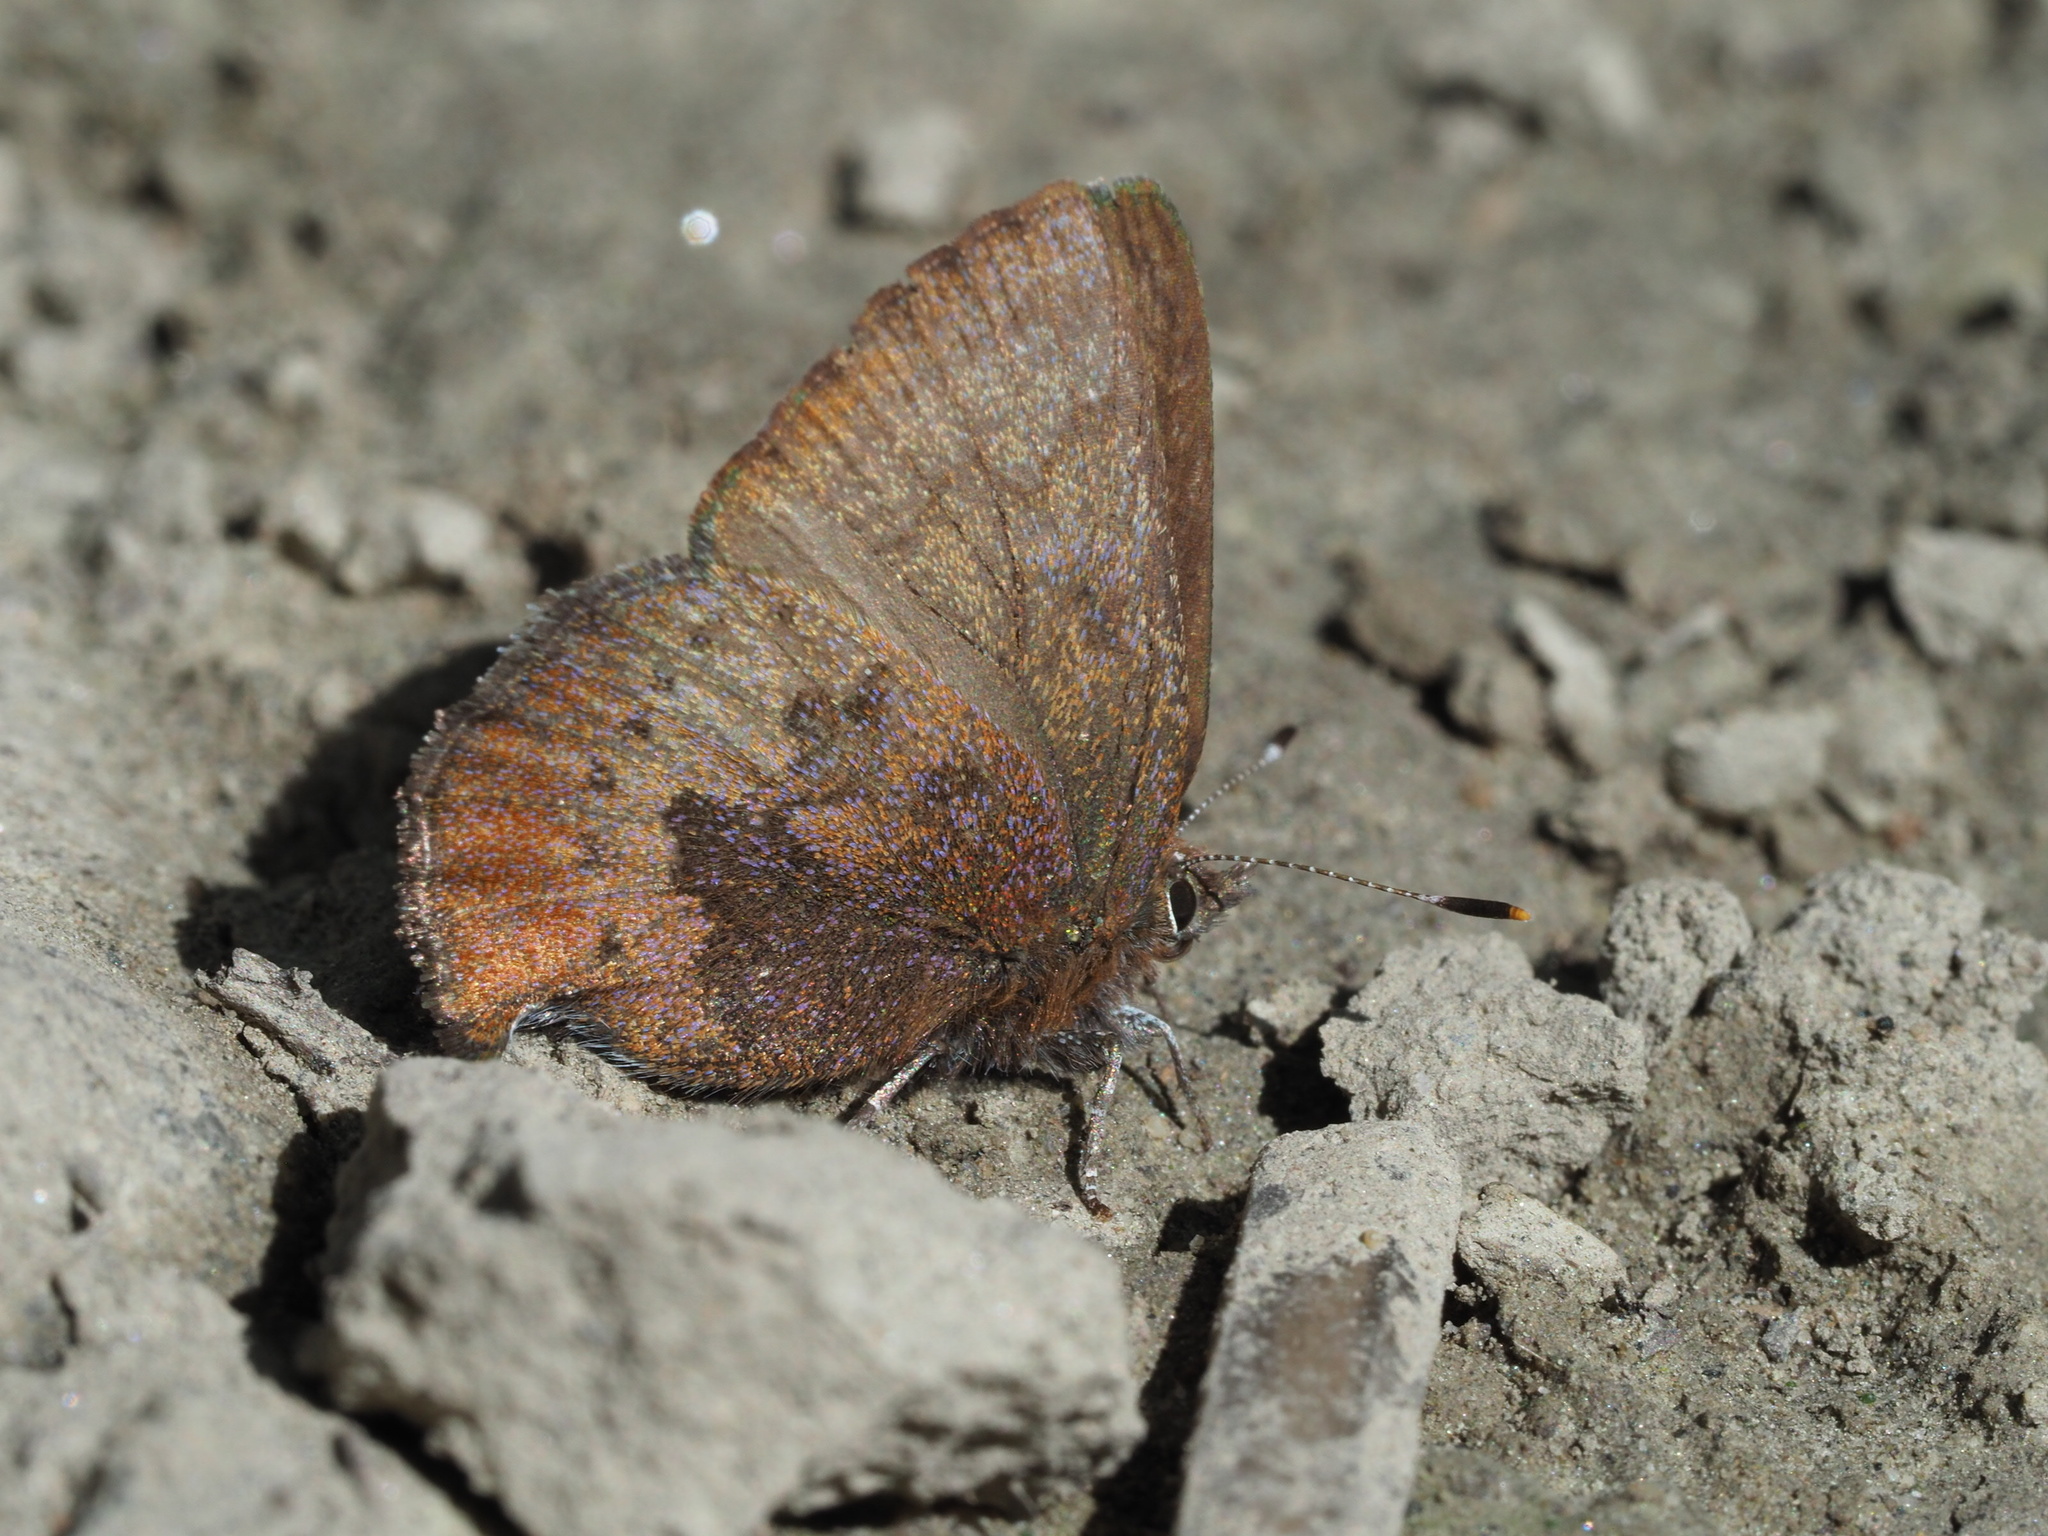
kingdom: Animalia
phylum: Arthropoda
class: Insecta
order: Lepidoptera
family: Lycaenidae
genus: Incisalia
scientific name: Incisalia irioides
